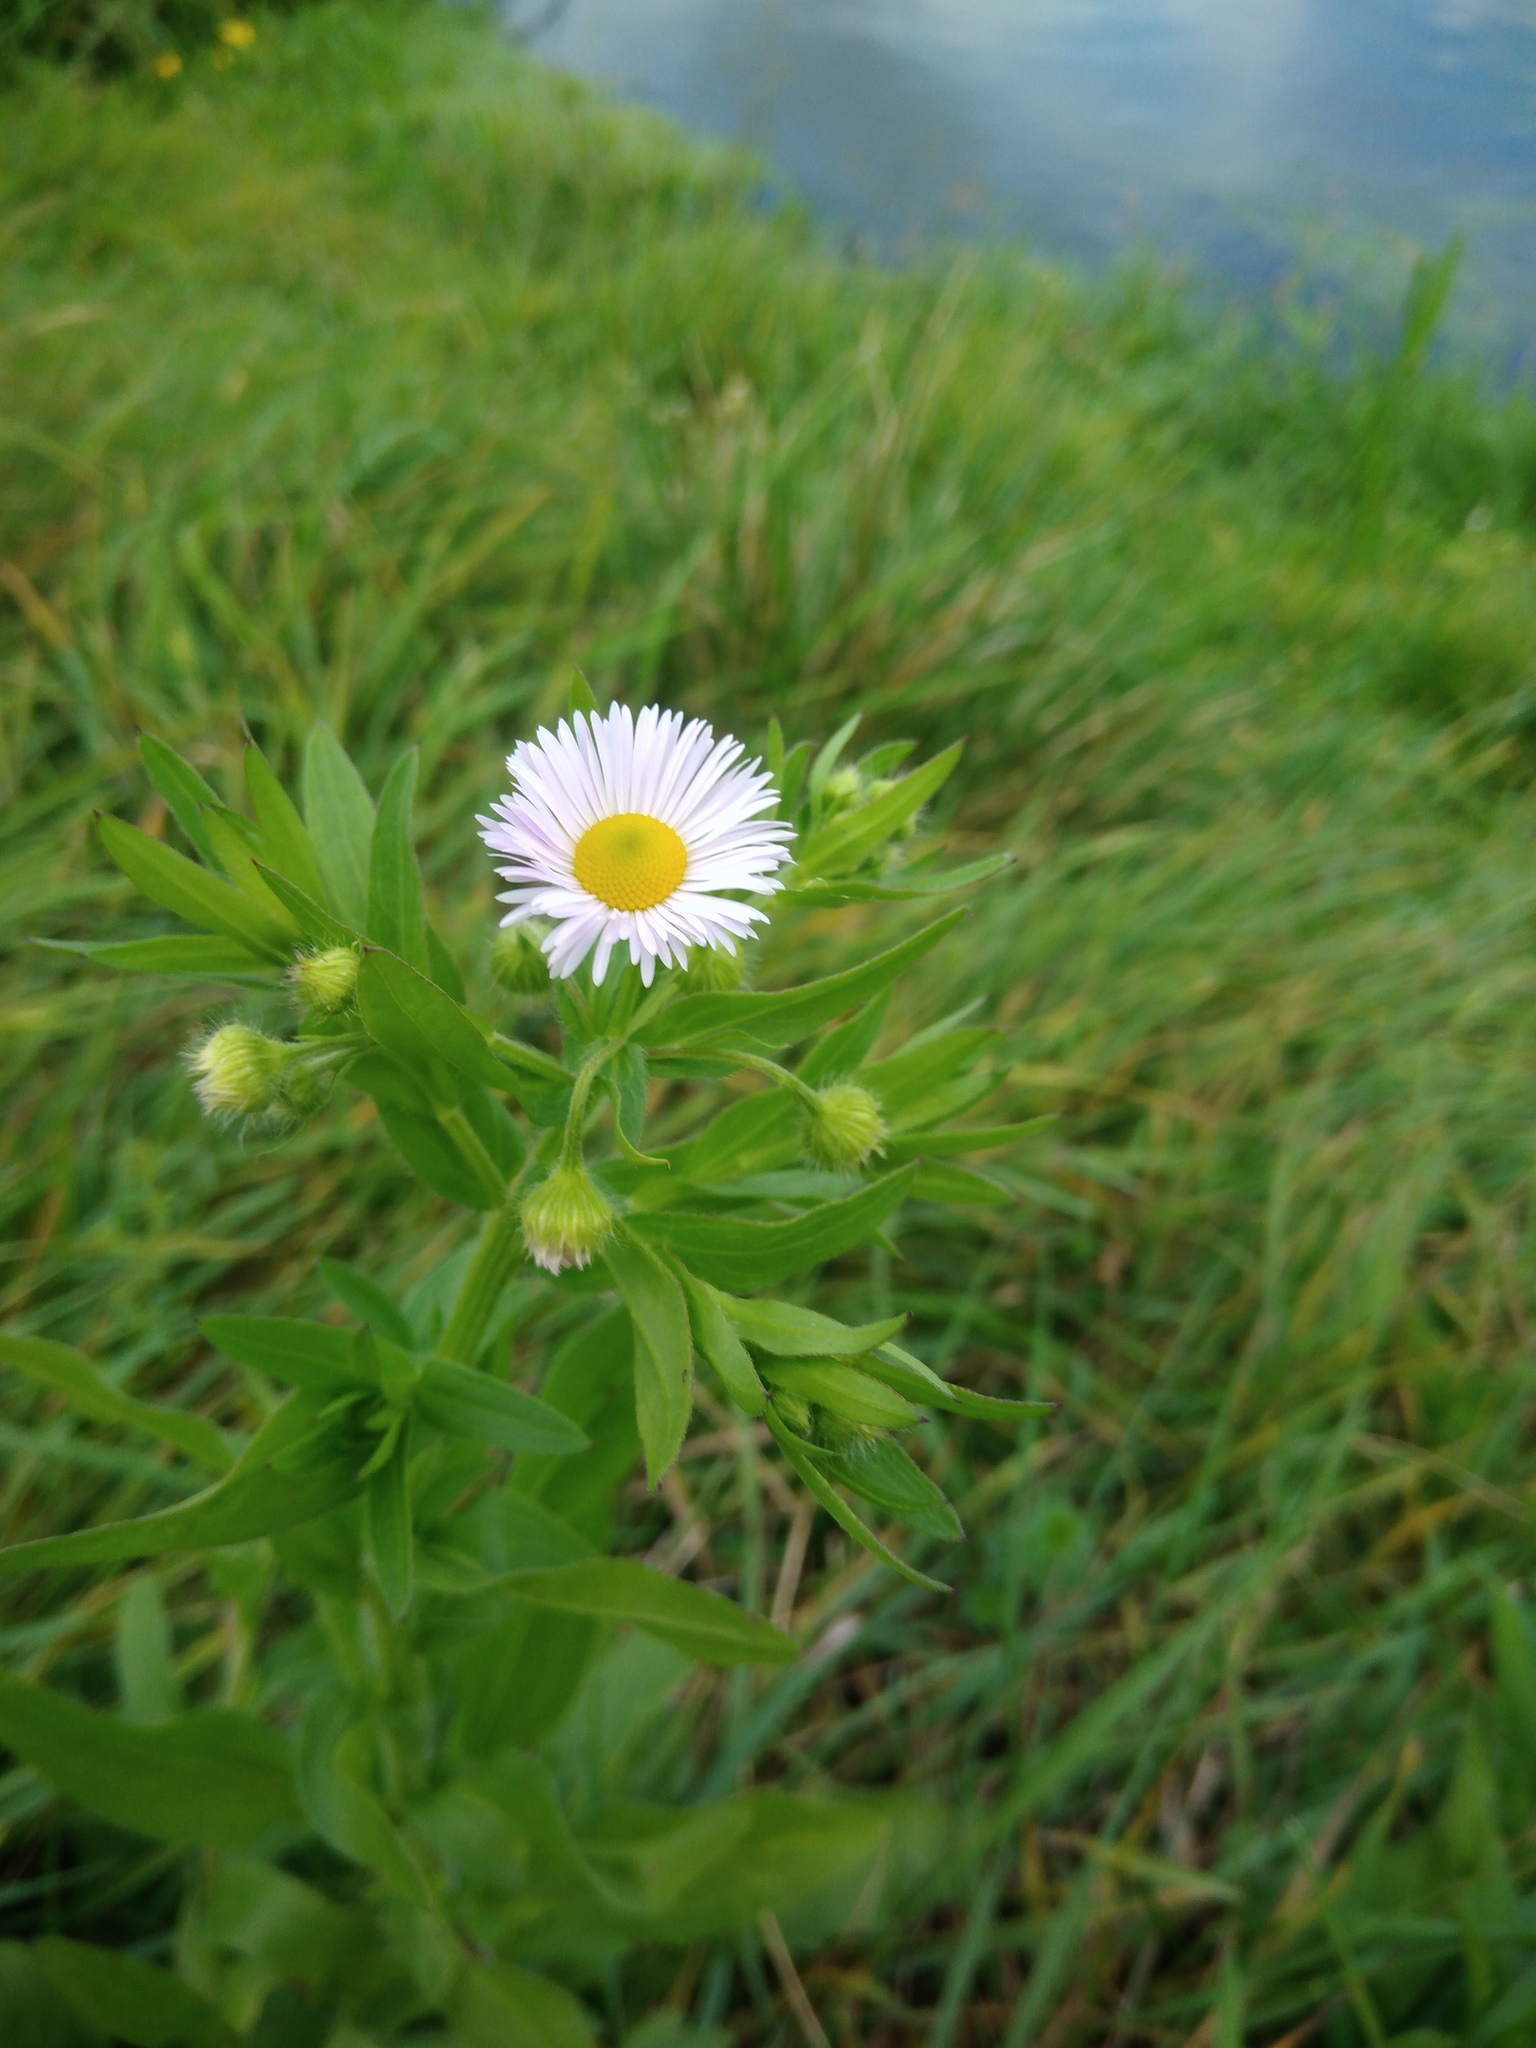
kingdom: Plantae
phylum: Tracheophyta
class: Magnoliopsida
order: Asterales
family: Asteraceae
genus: Erigeron
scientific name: Erigeron annuus
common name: Tall fleabane
